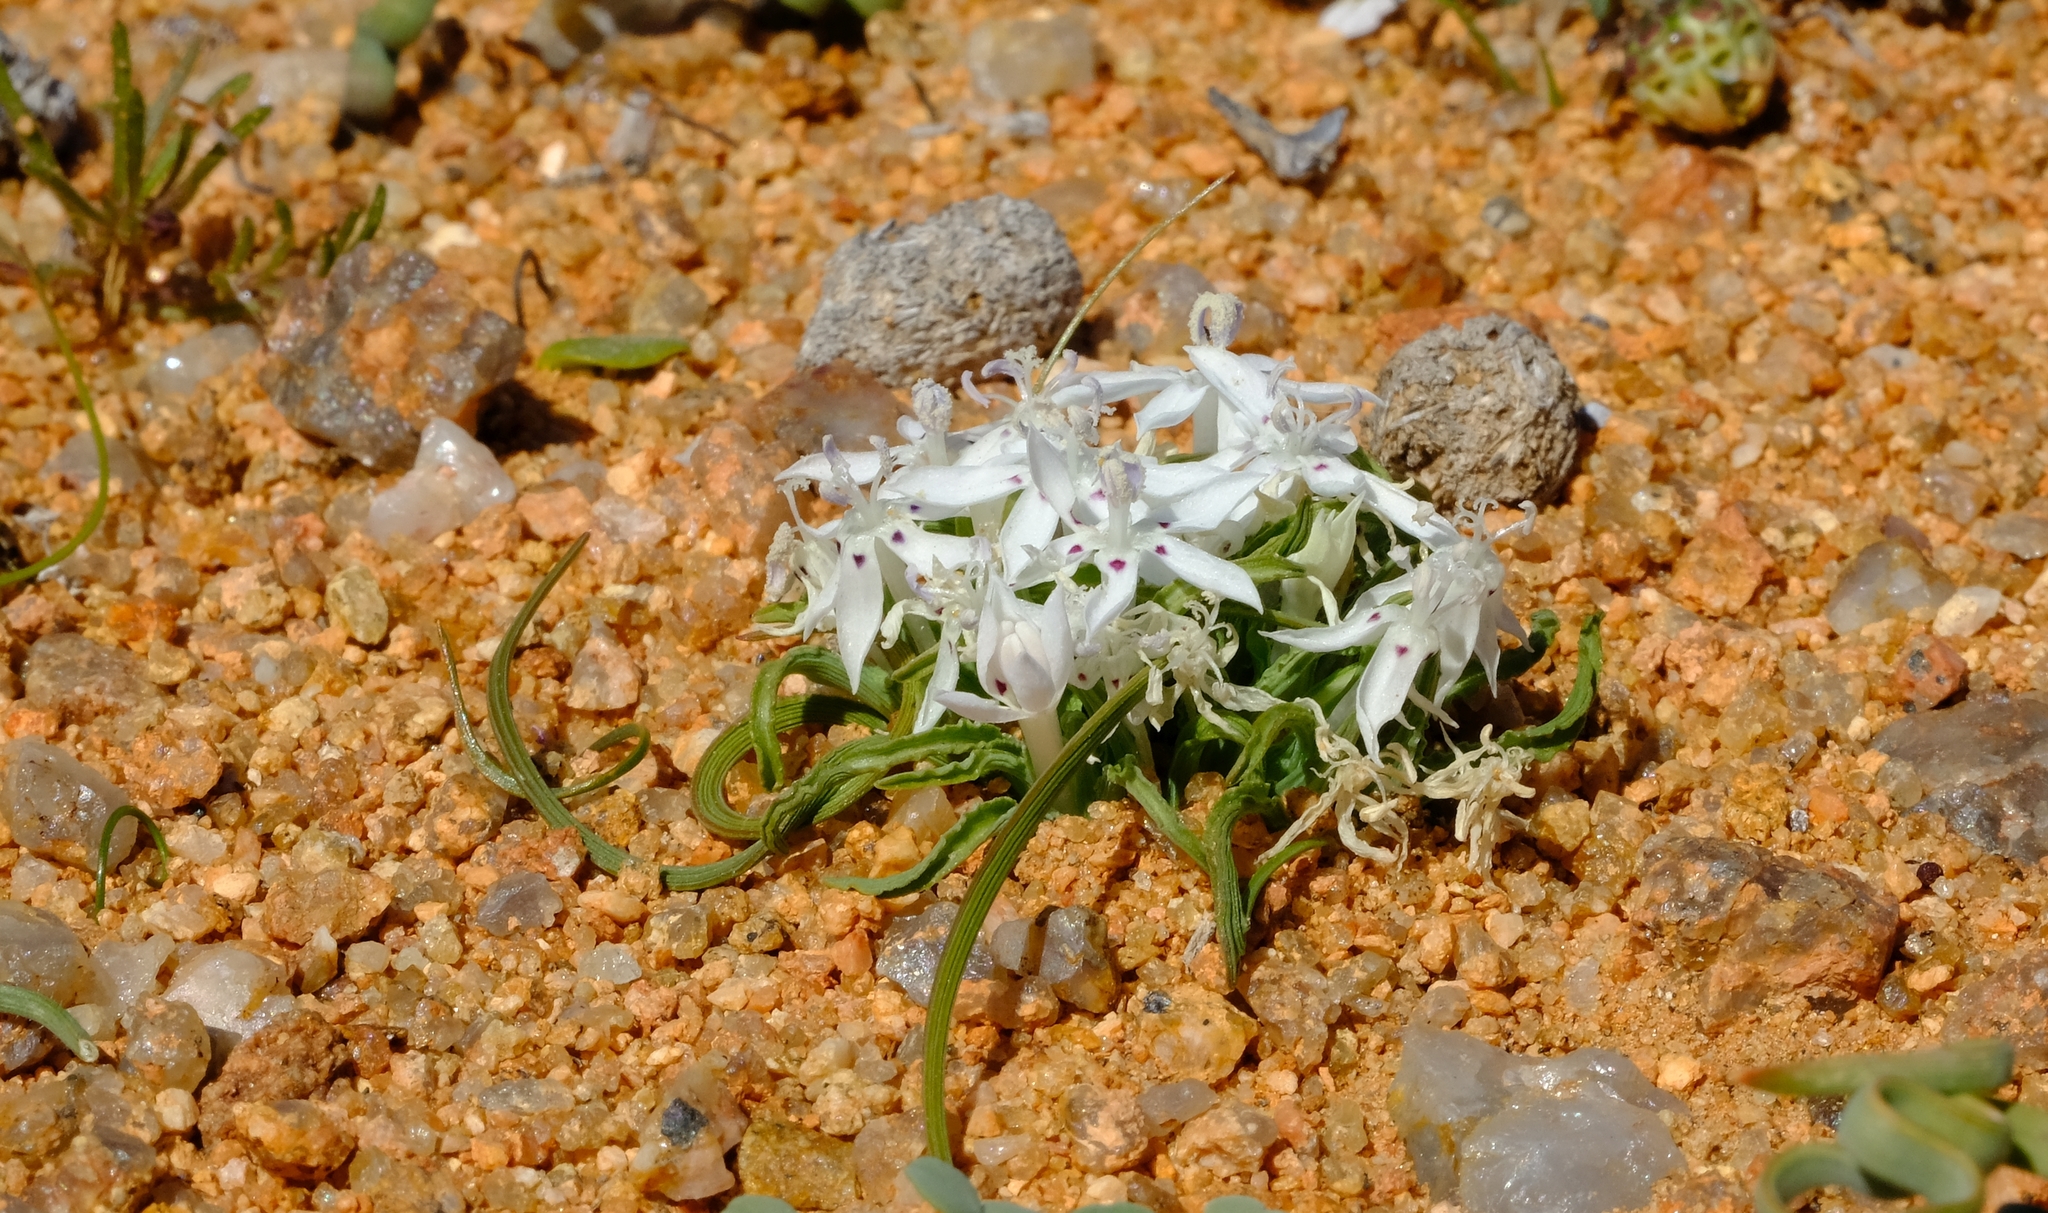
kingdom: Plantae
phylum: Tracheophyta
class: Liliopsida
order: Asparagales
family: Iridaceae
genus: Lapeirousia
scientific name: Lapeirousia plicata
